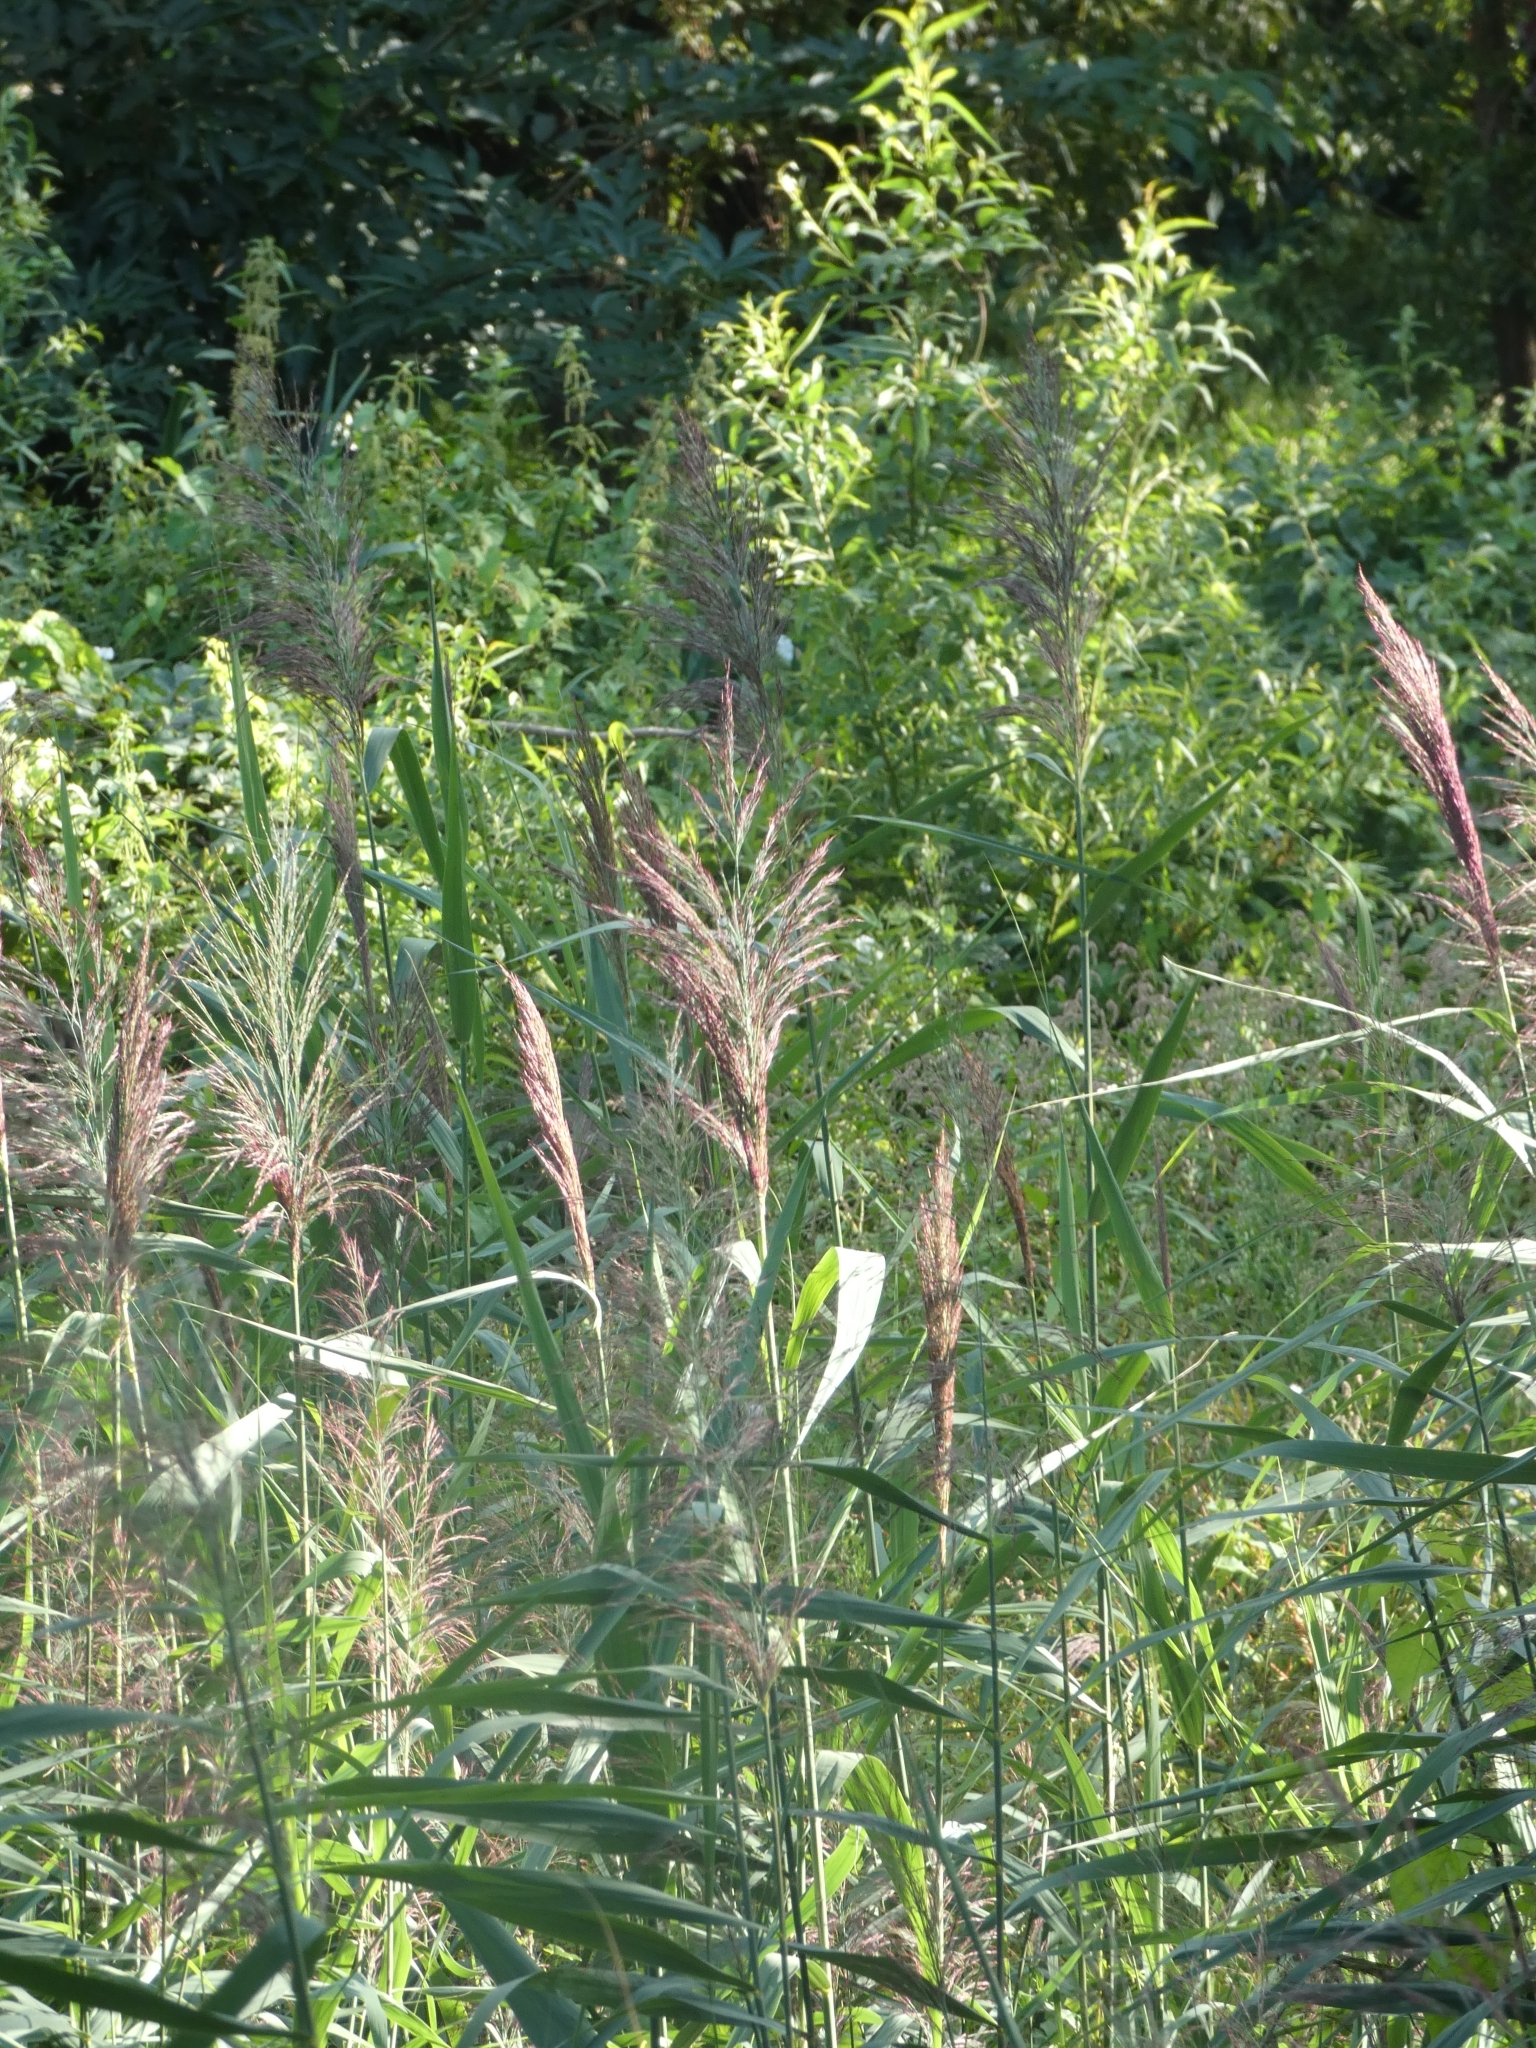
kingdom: Plantae
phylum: Tracheophyta
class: Liliopsida
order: Poales
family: Poaceae
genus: Phragmites
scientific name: Phragmites australis
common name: Common reed
